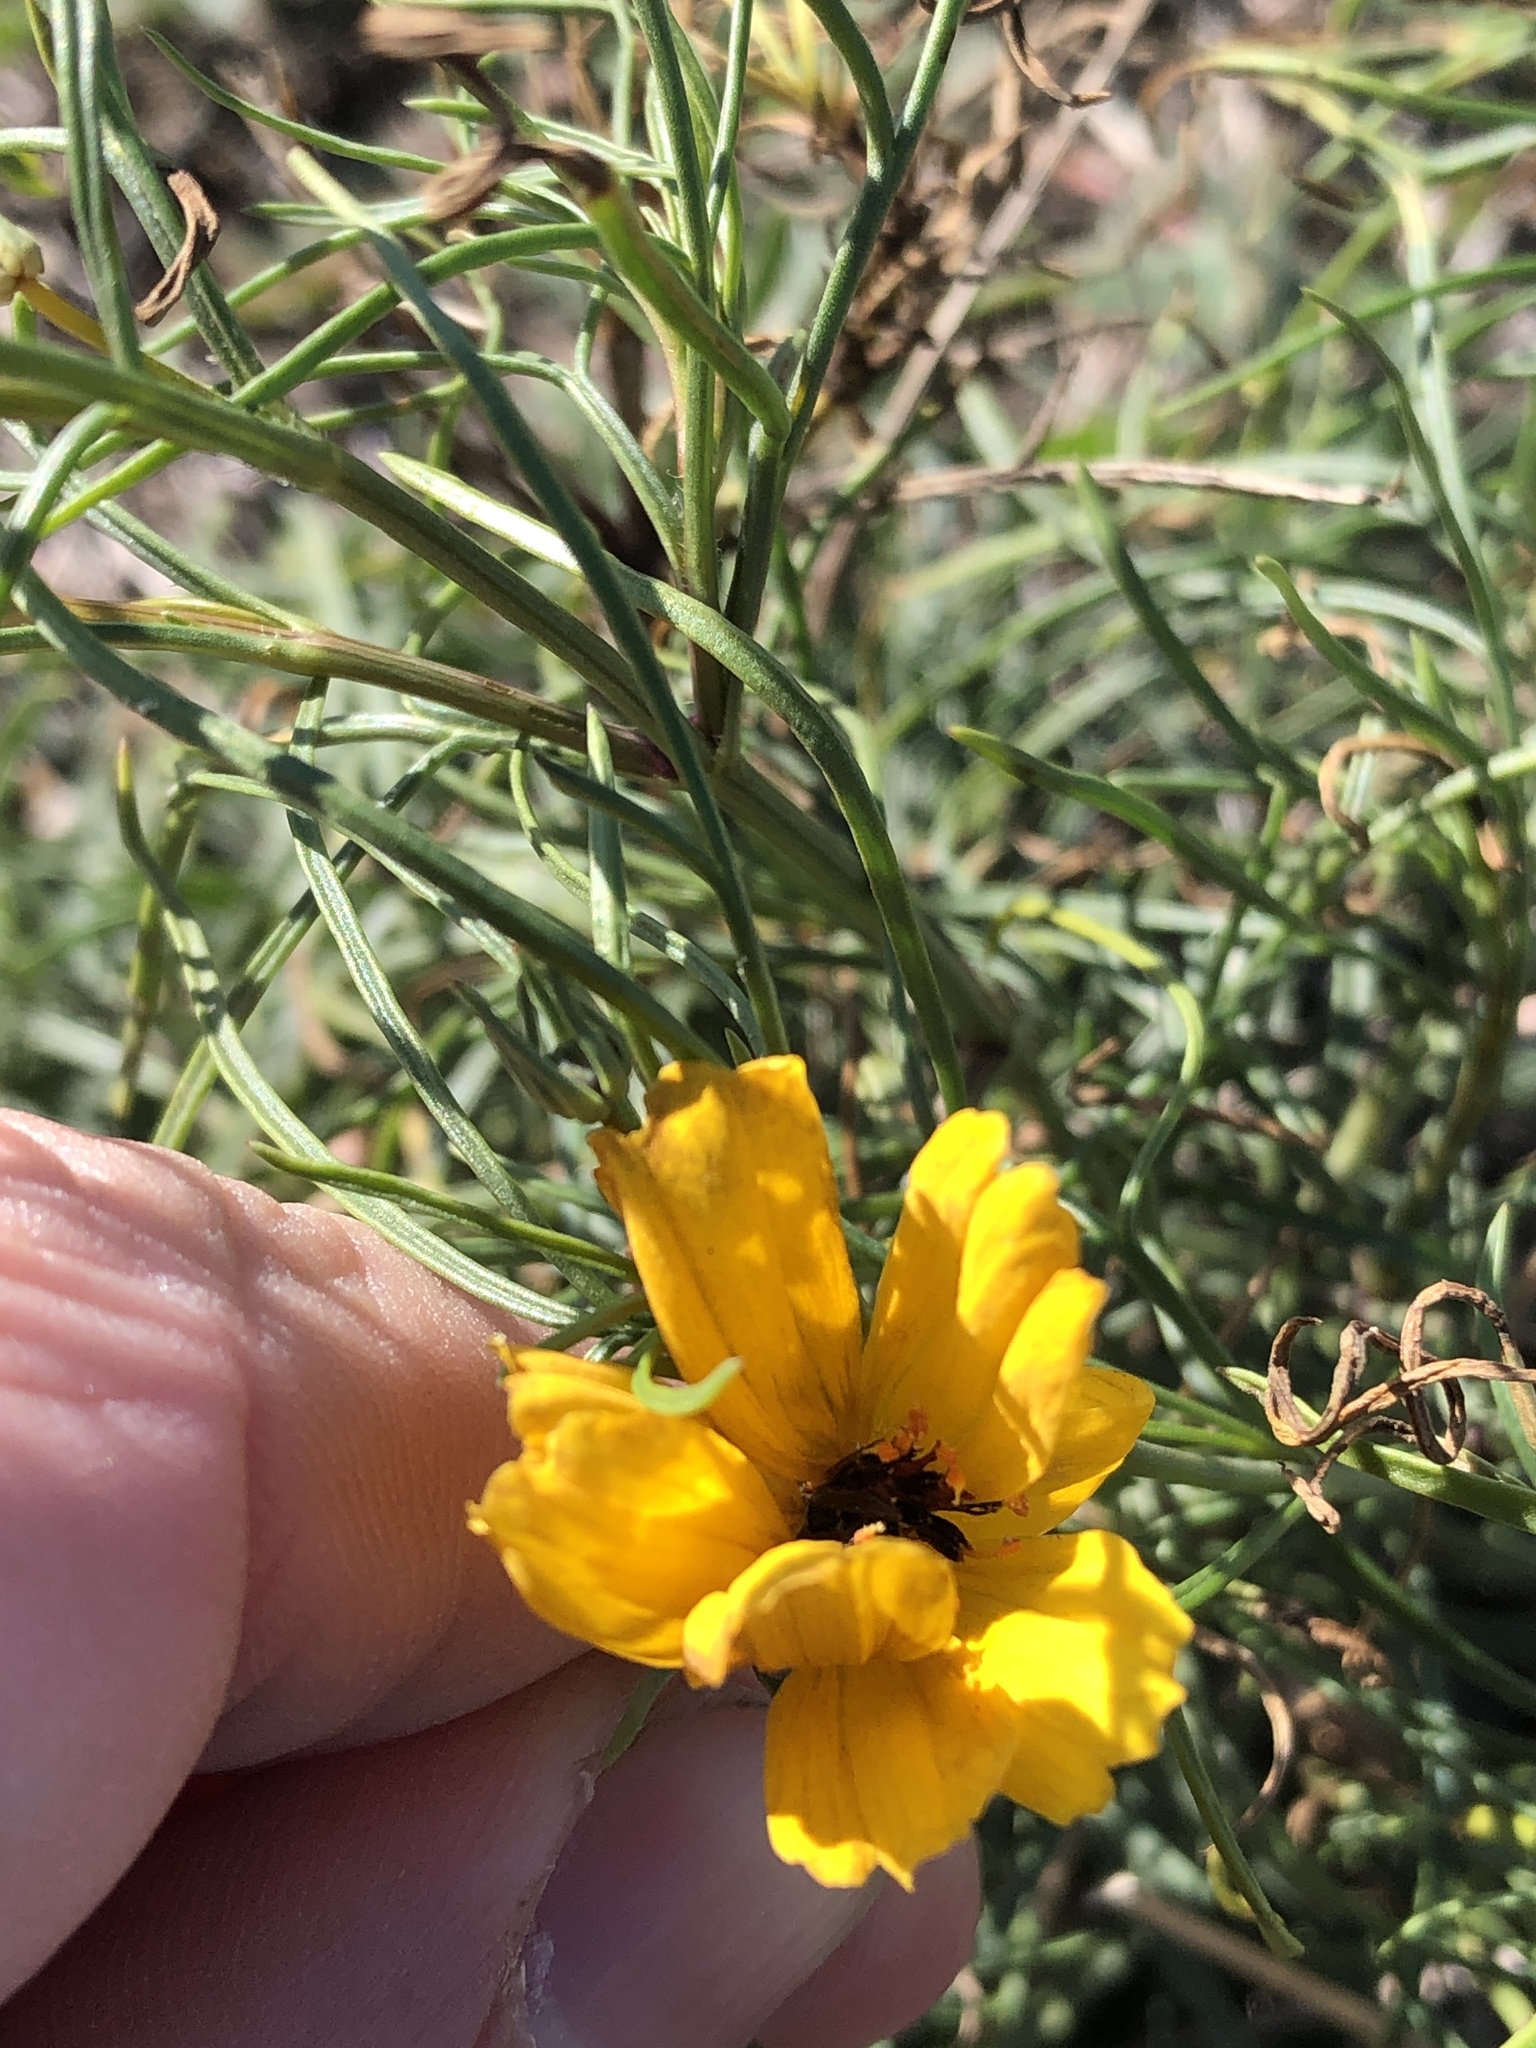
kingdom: Plantae
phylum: Tracheophyta
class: Magnoliopsida
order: Asterales
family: Asteraceae
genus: Thelesperma
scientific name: Thelesperma filifolium
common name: Stiff greenthread
